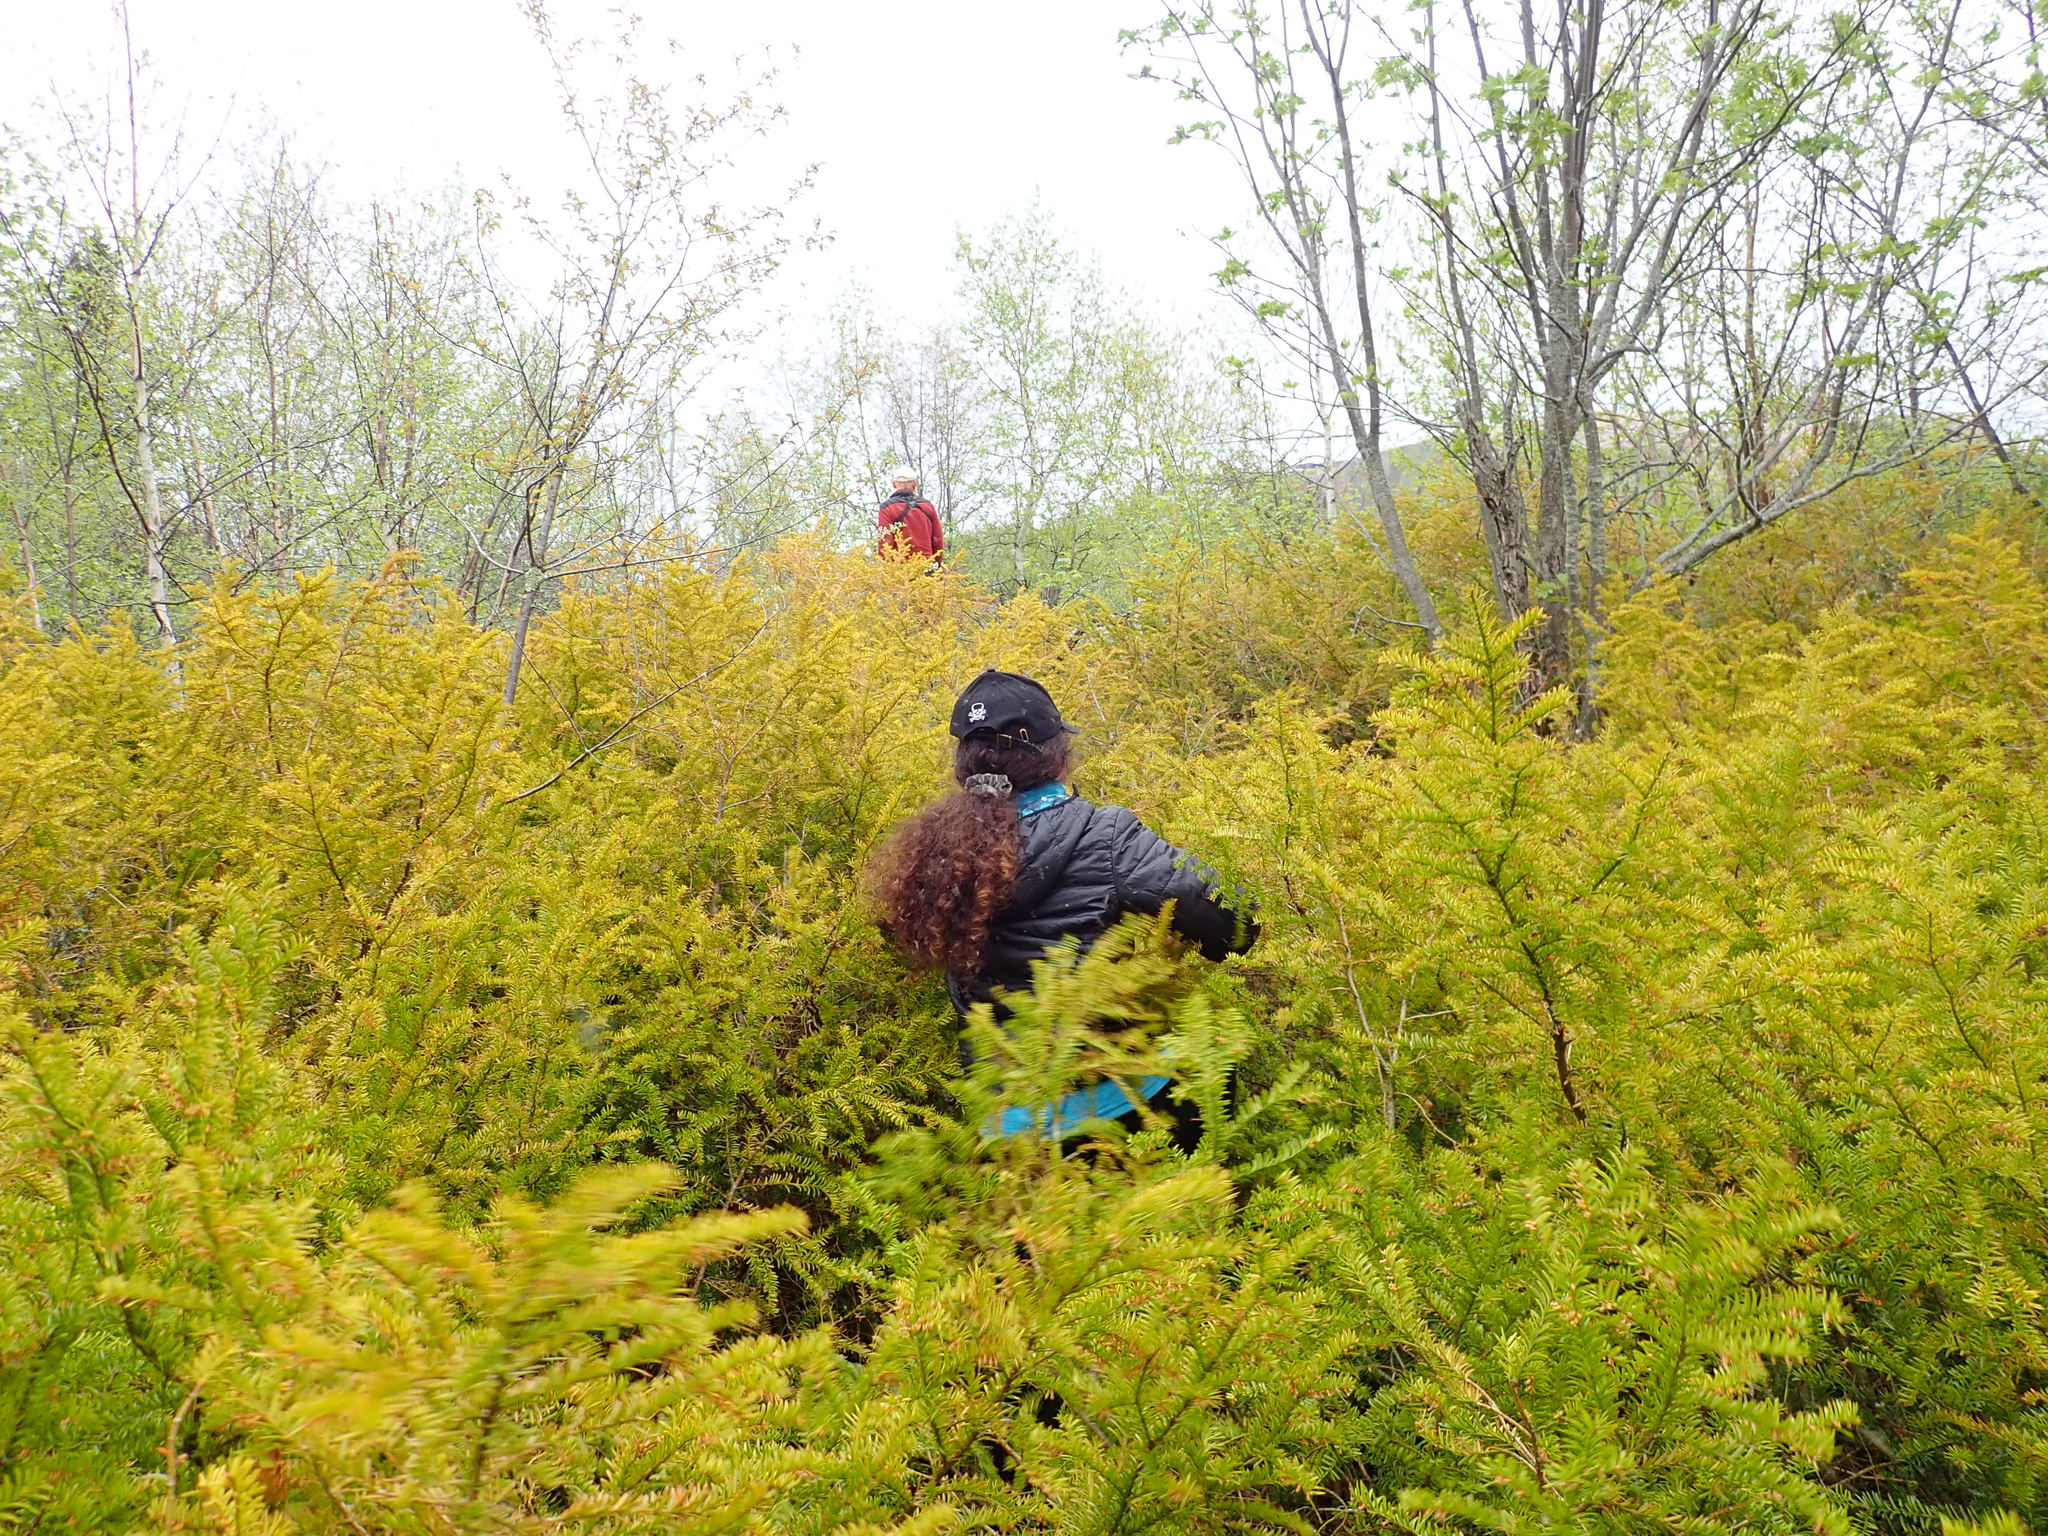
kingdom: Plantae
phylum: Tracheophyta
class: Pinopsida
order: Pinales
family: Taxaceae
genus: Taxus
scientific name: Taxus canadensis
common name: American yew
